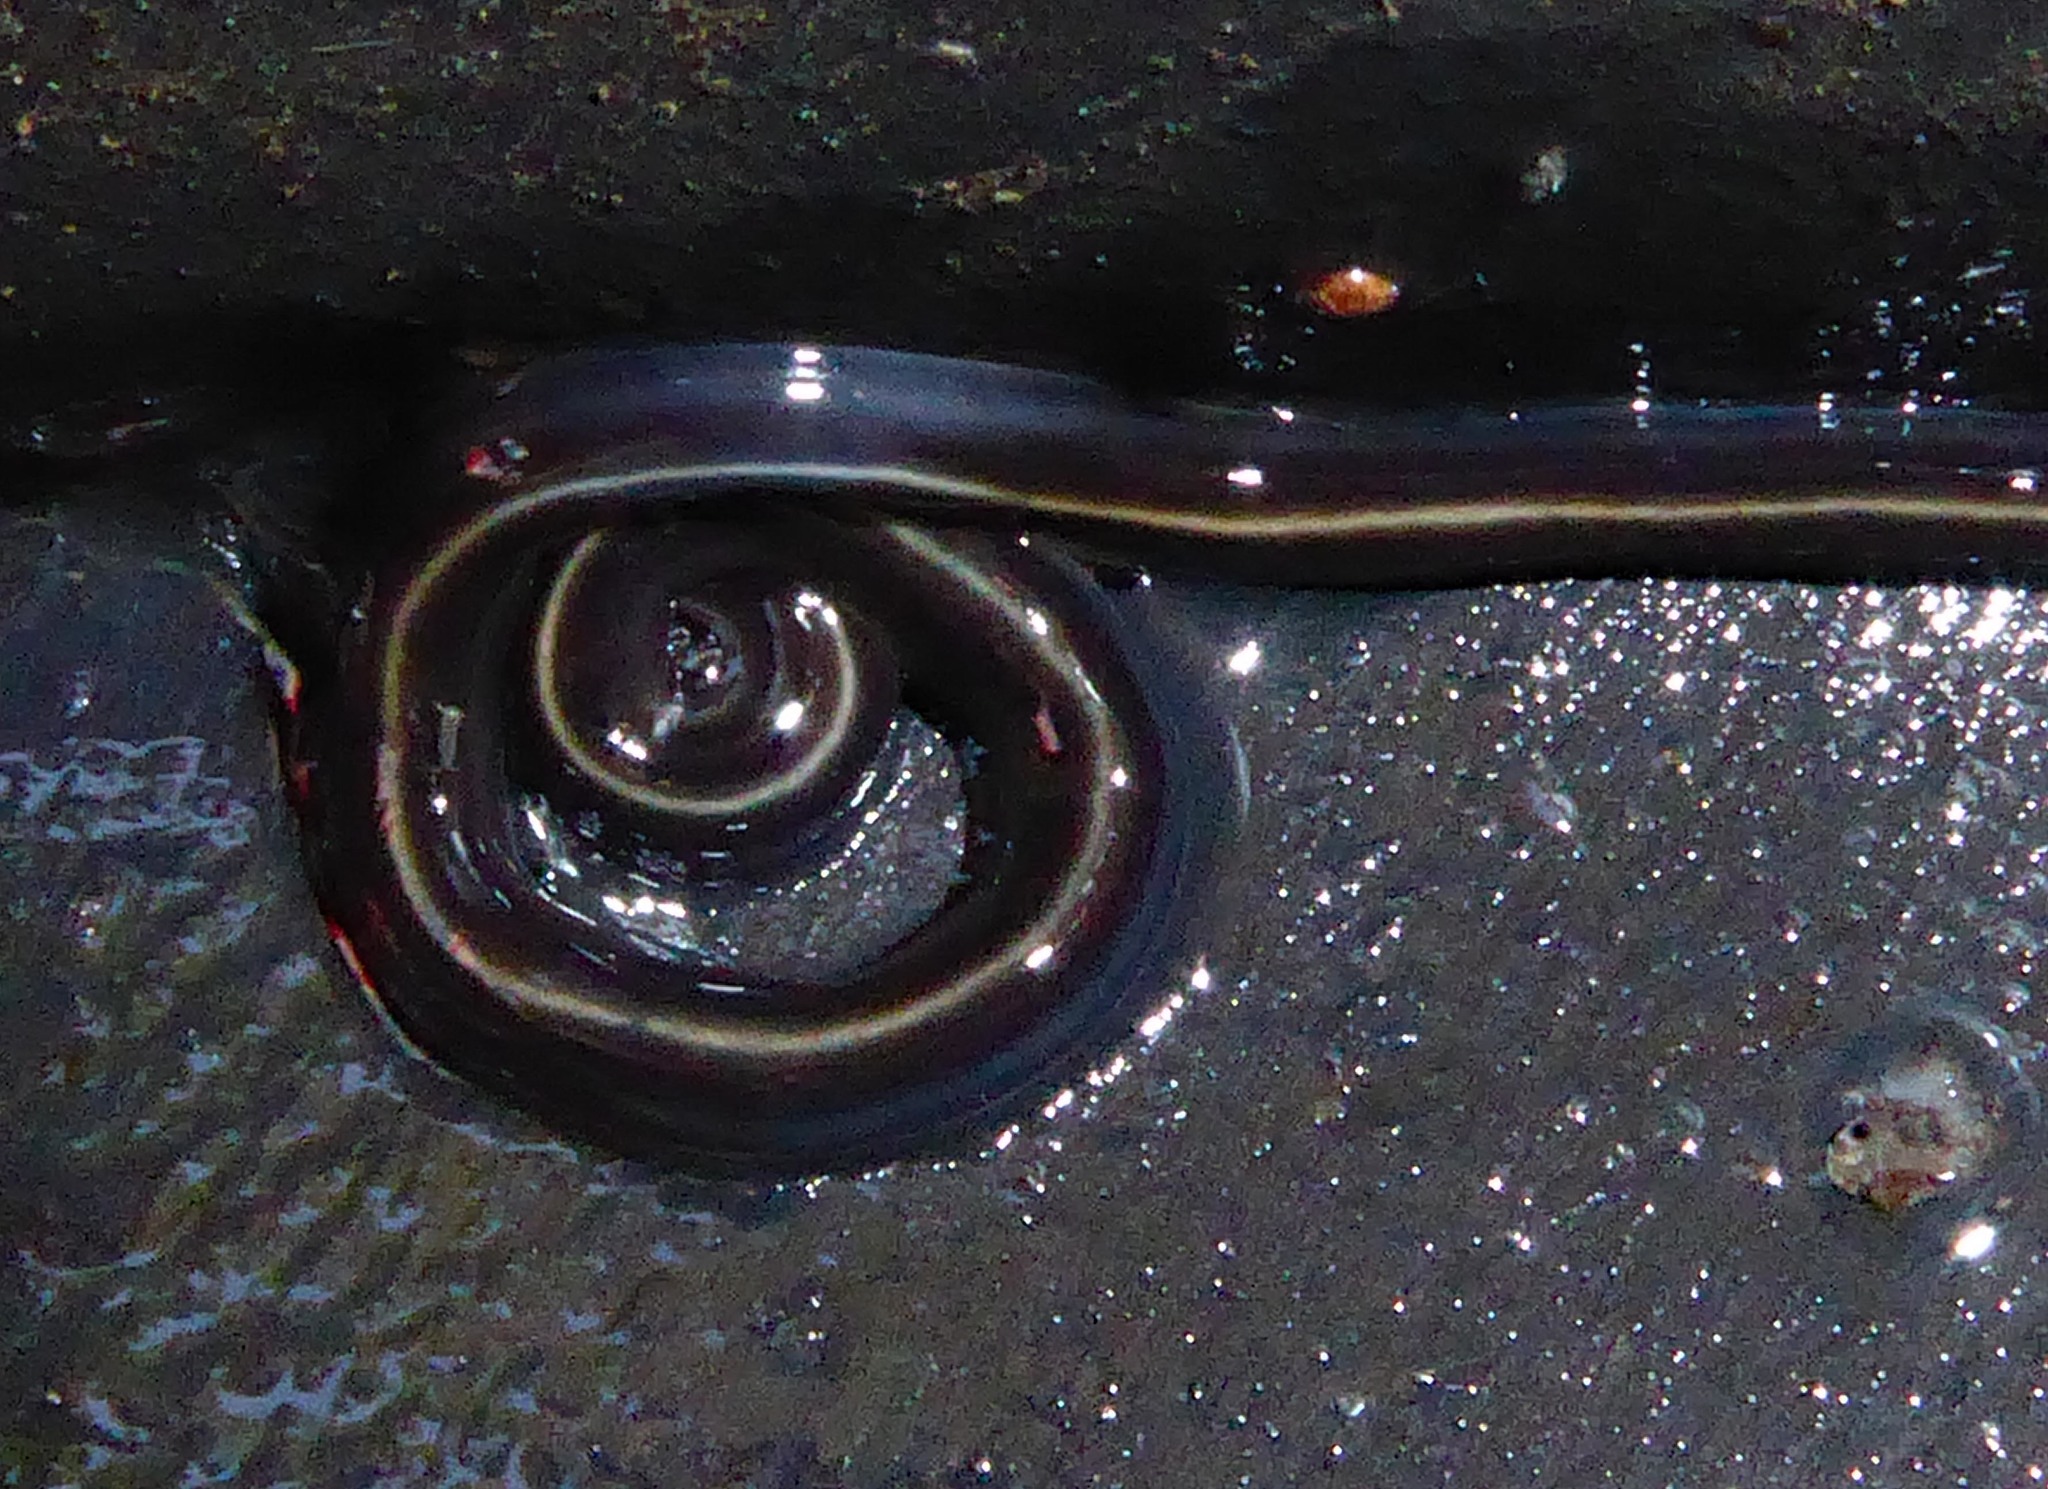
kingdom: Animalia
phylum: Platyhelminthes
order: Tricladida
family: Geoplanidae
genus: Caenoplana
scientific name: Caenoplana coerulea
